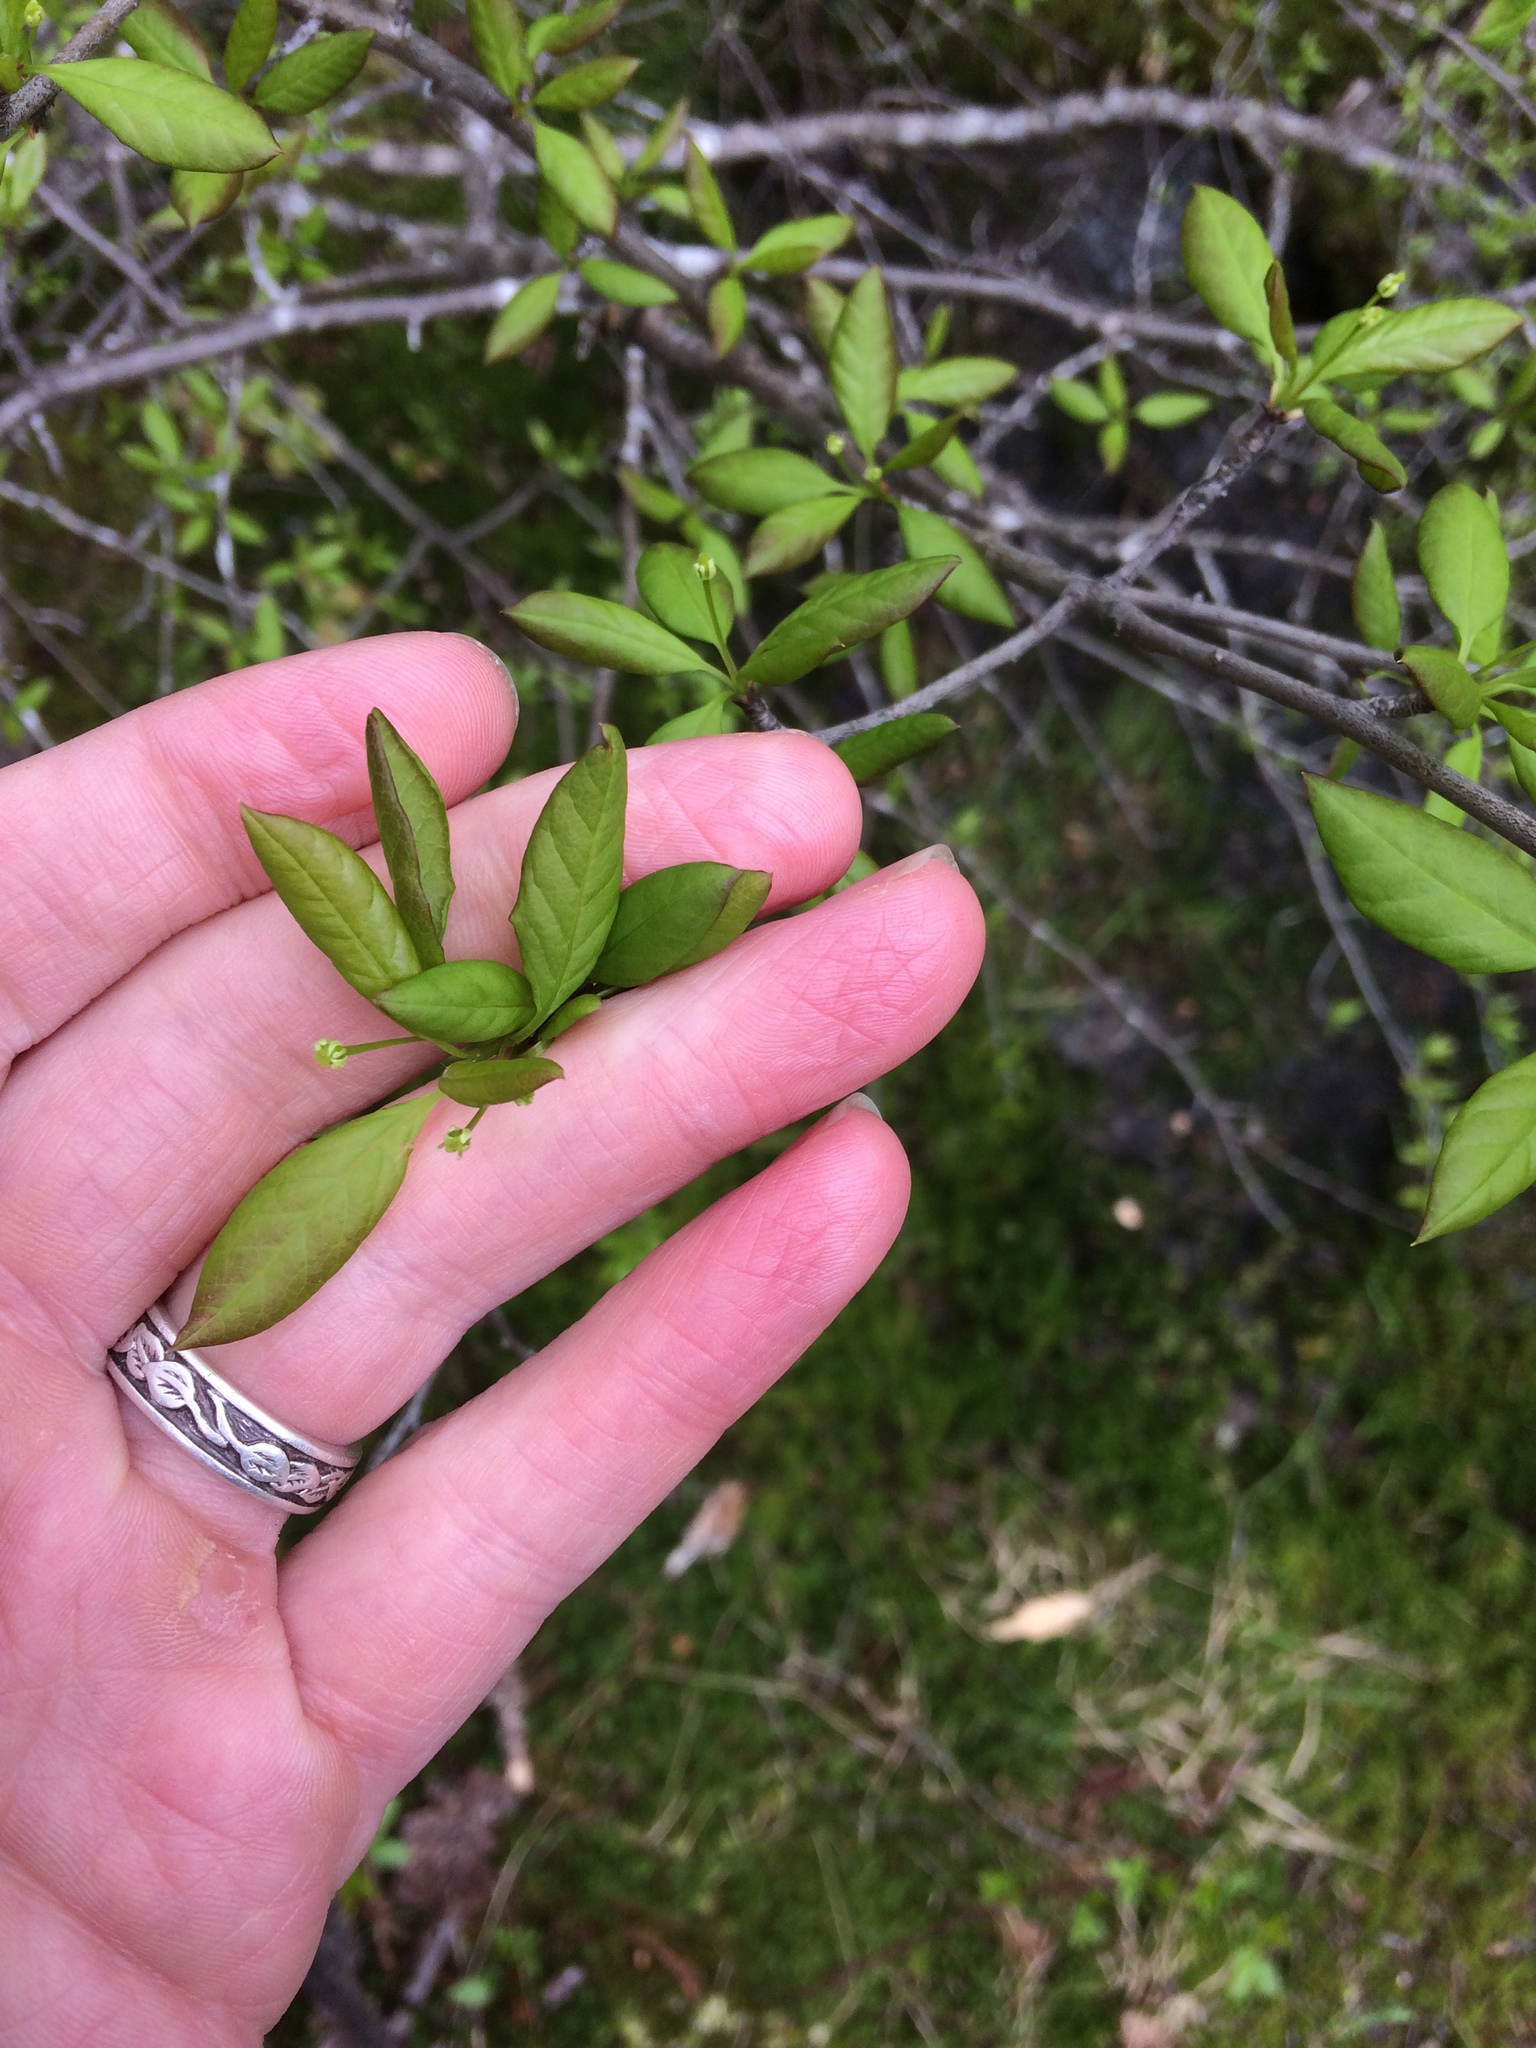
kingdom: Plantae
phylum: Tracheophyta
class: Magnoliopsida
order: Aquifoliales
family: Aquifoliaceae
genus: Ilex
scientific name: Ilex mucronata
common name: Catberry
